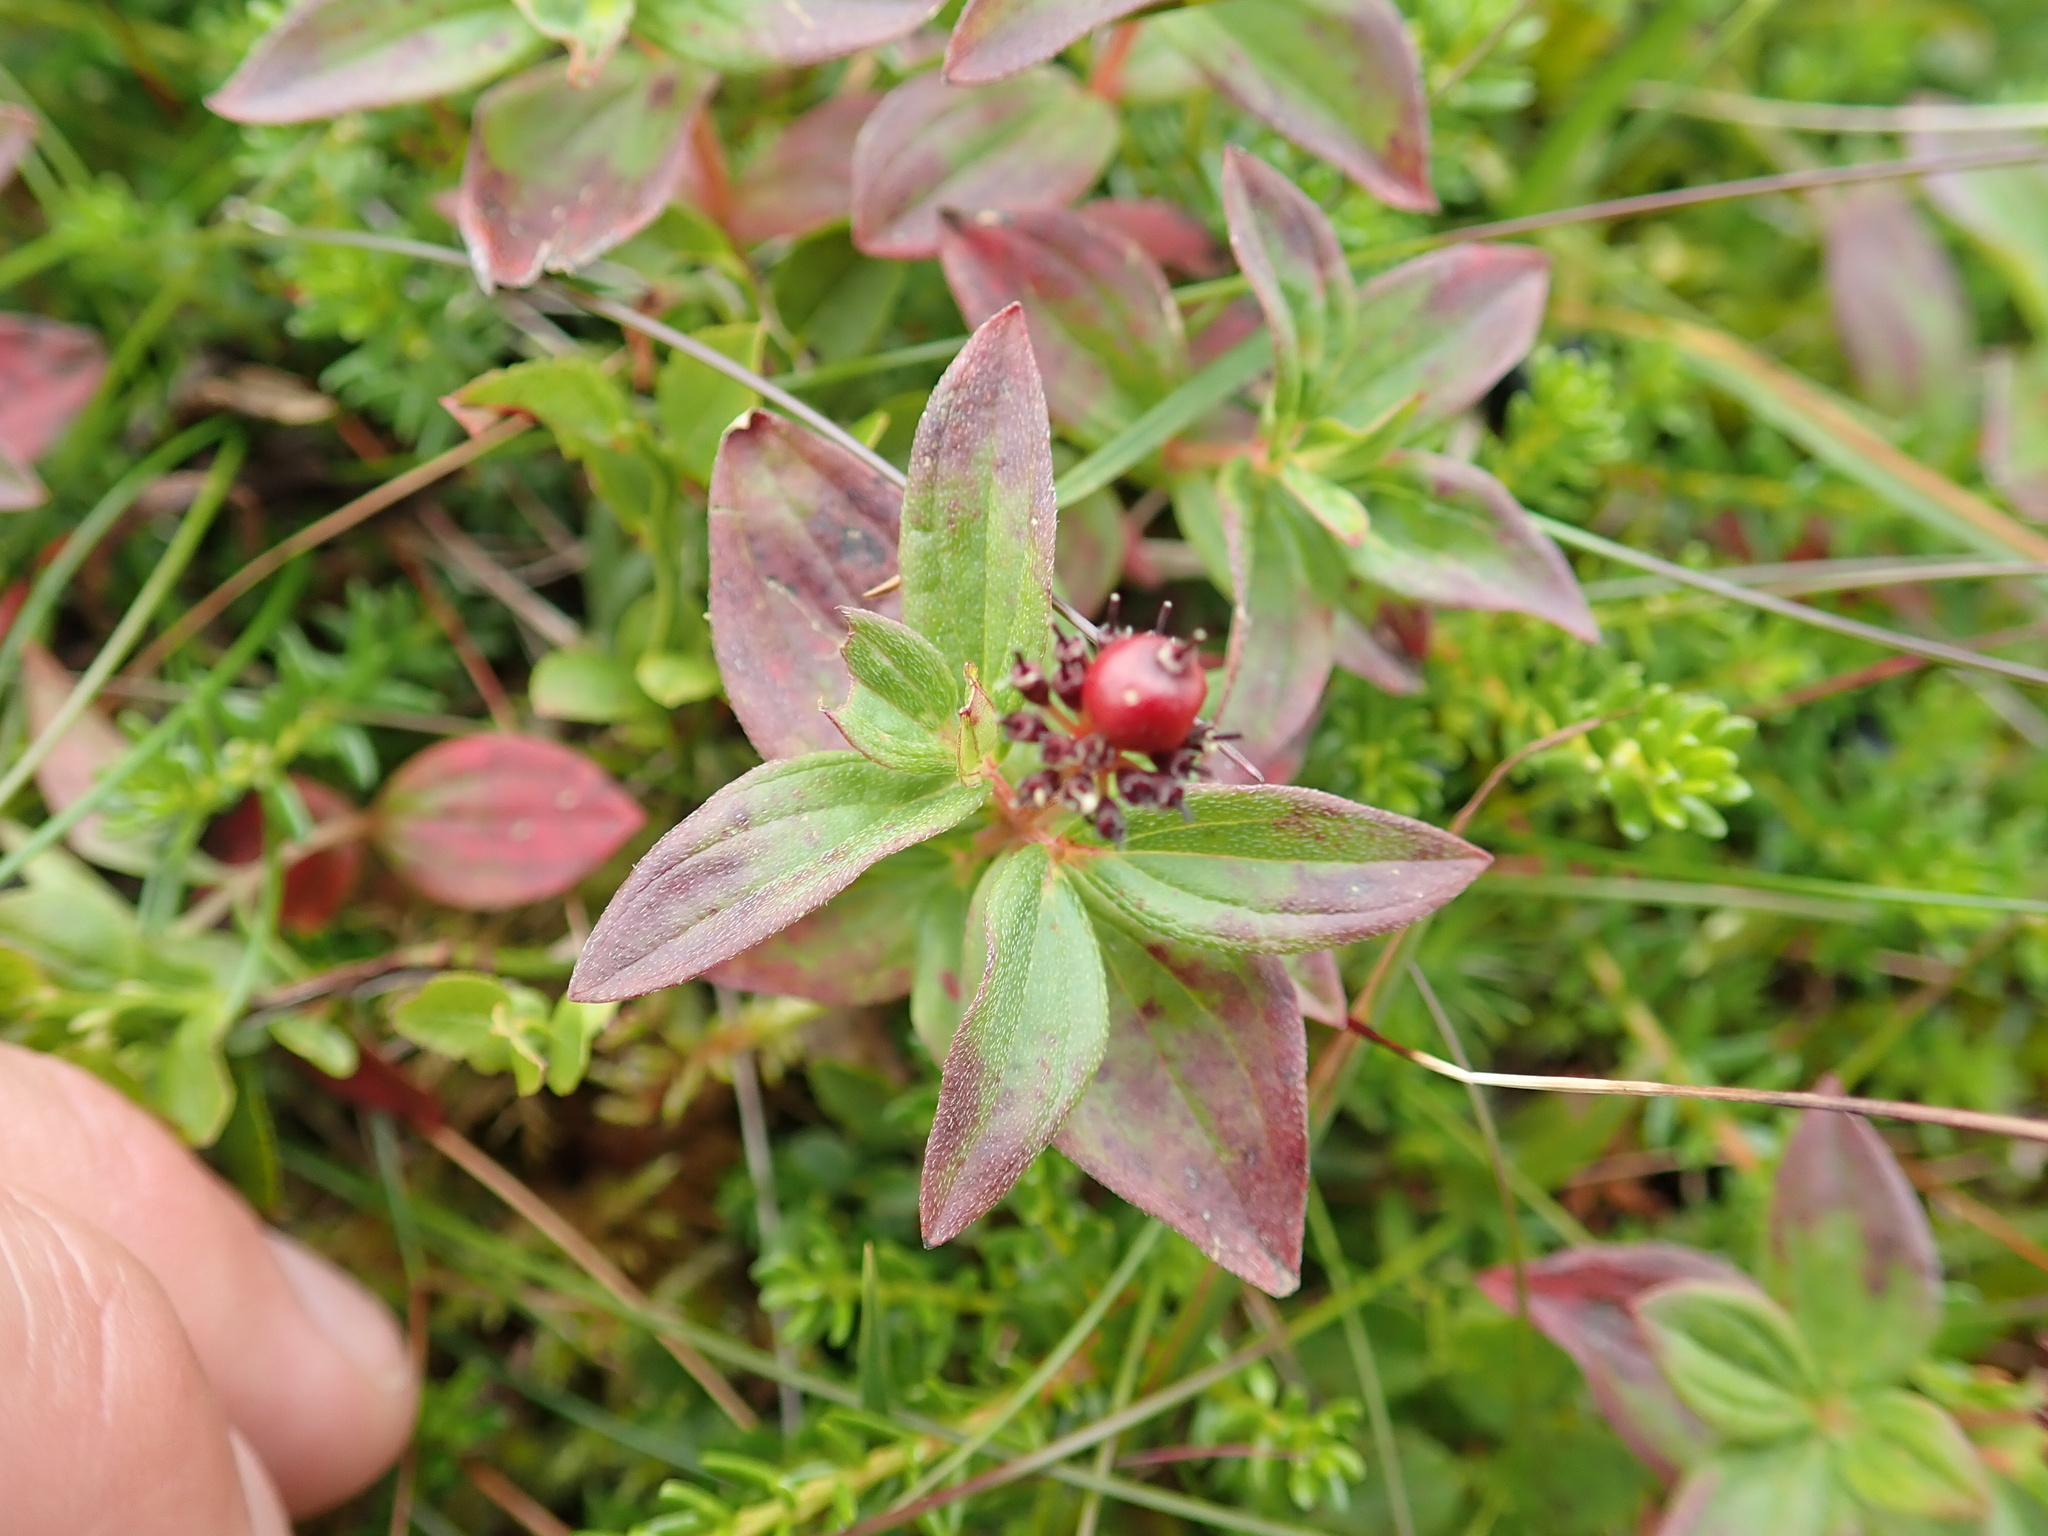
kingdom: Plantae
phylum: Tracheophyta
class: Magnoliopsida
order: Cornales
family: Cornaceae
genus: Cornus
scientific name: Cornus suecica
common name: Dwarf cornel
